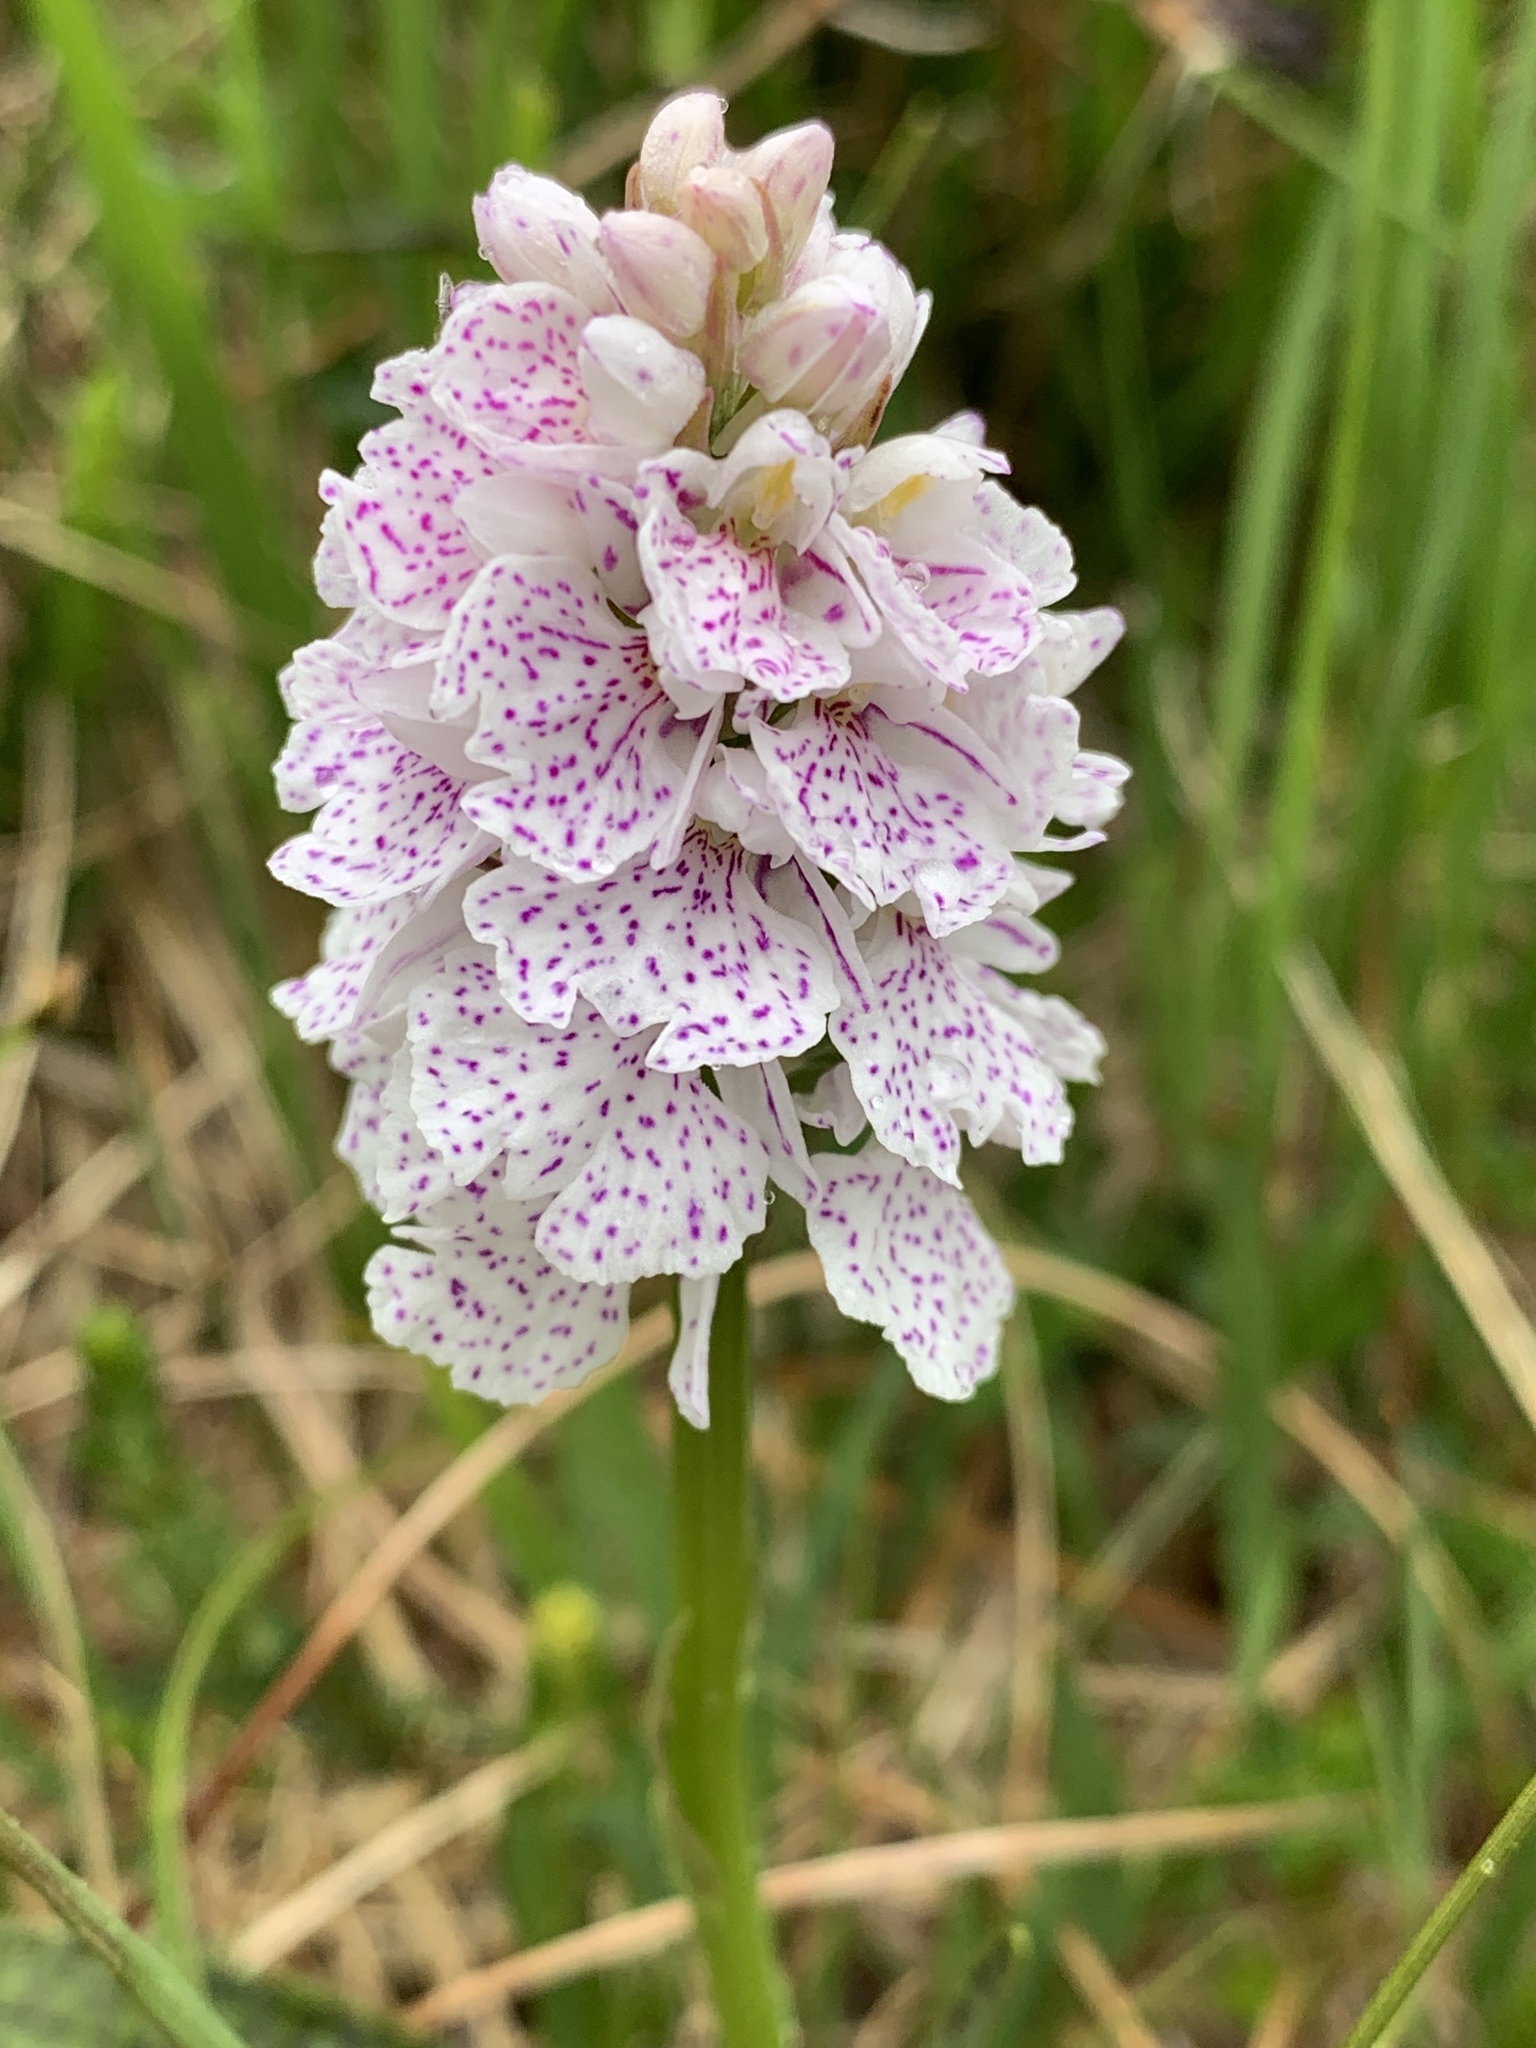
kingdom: Plantae
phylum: Tracheophyta
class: Liliopsida
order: Asparagales
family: Orchidaceae
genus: Dactylorhiza
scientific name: Dactylorhiza maculata
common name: Heath spotted-orchid
